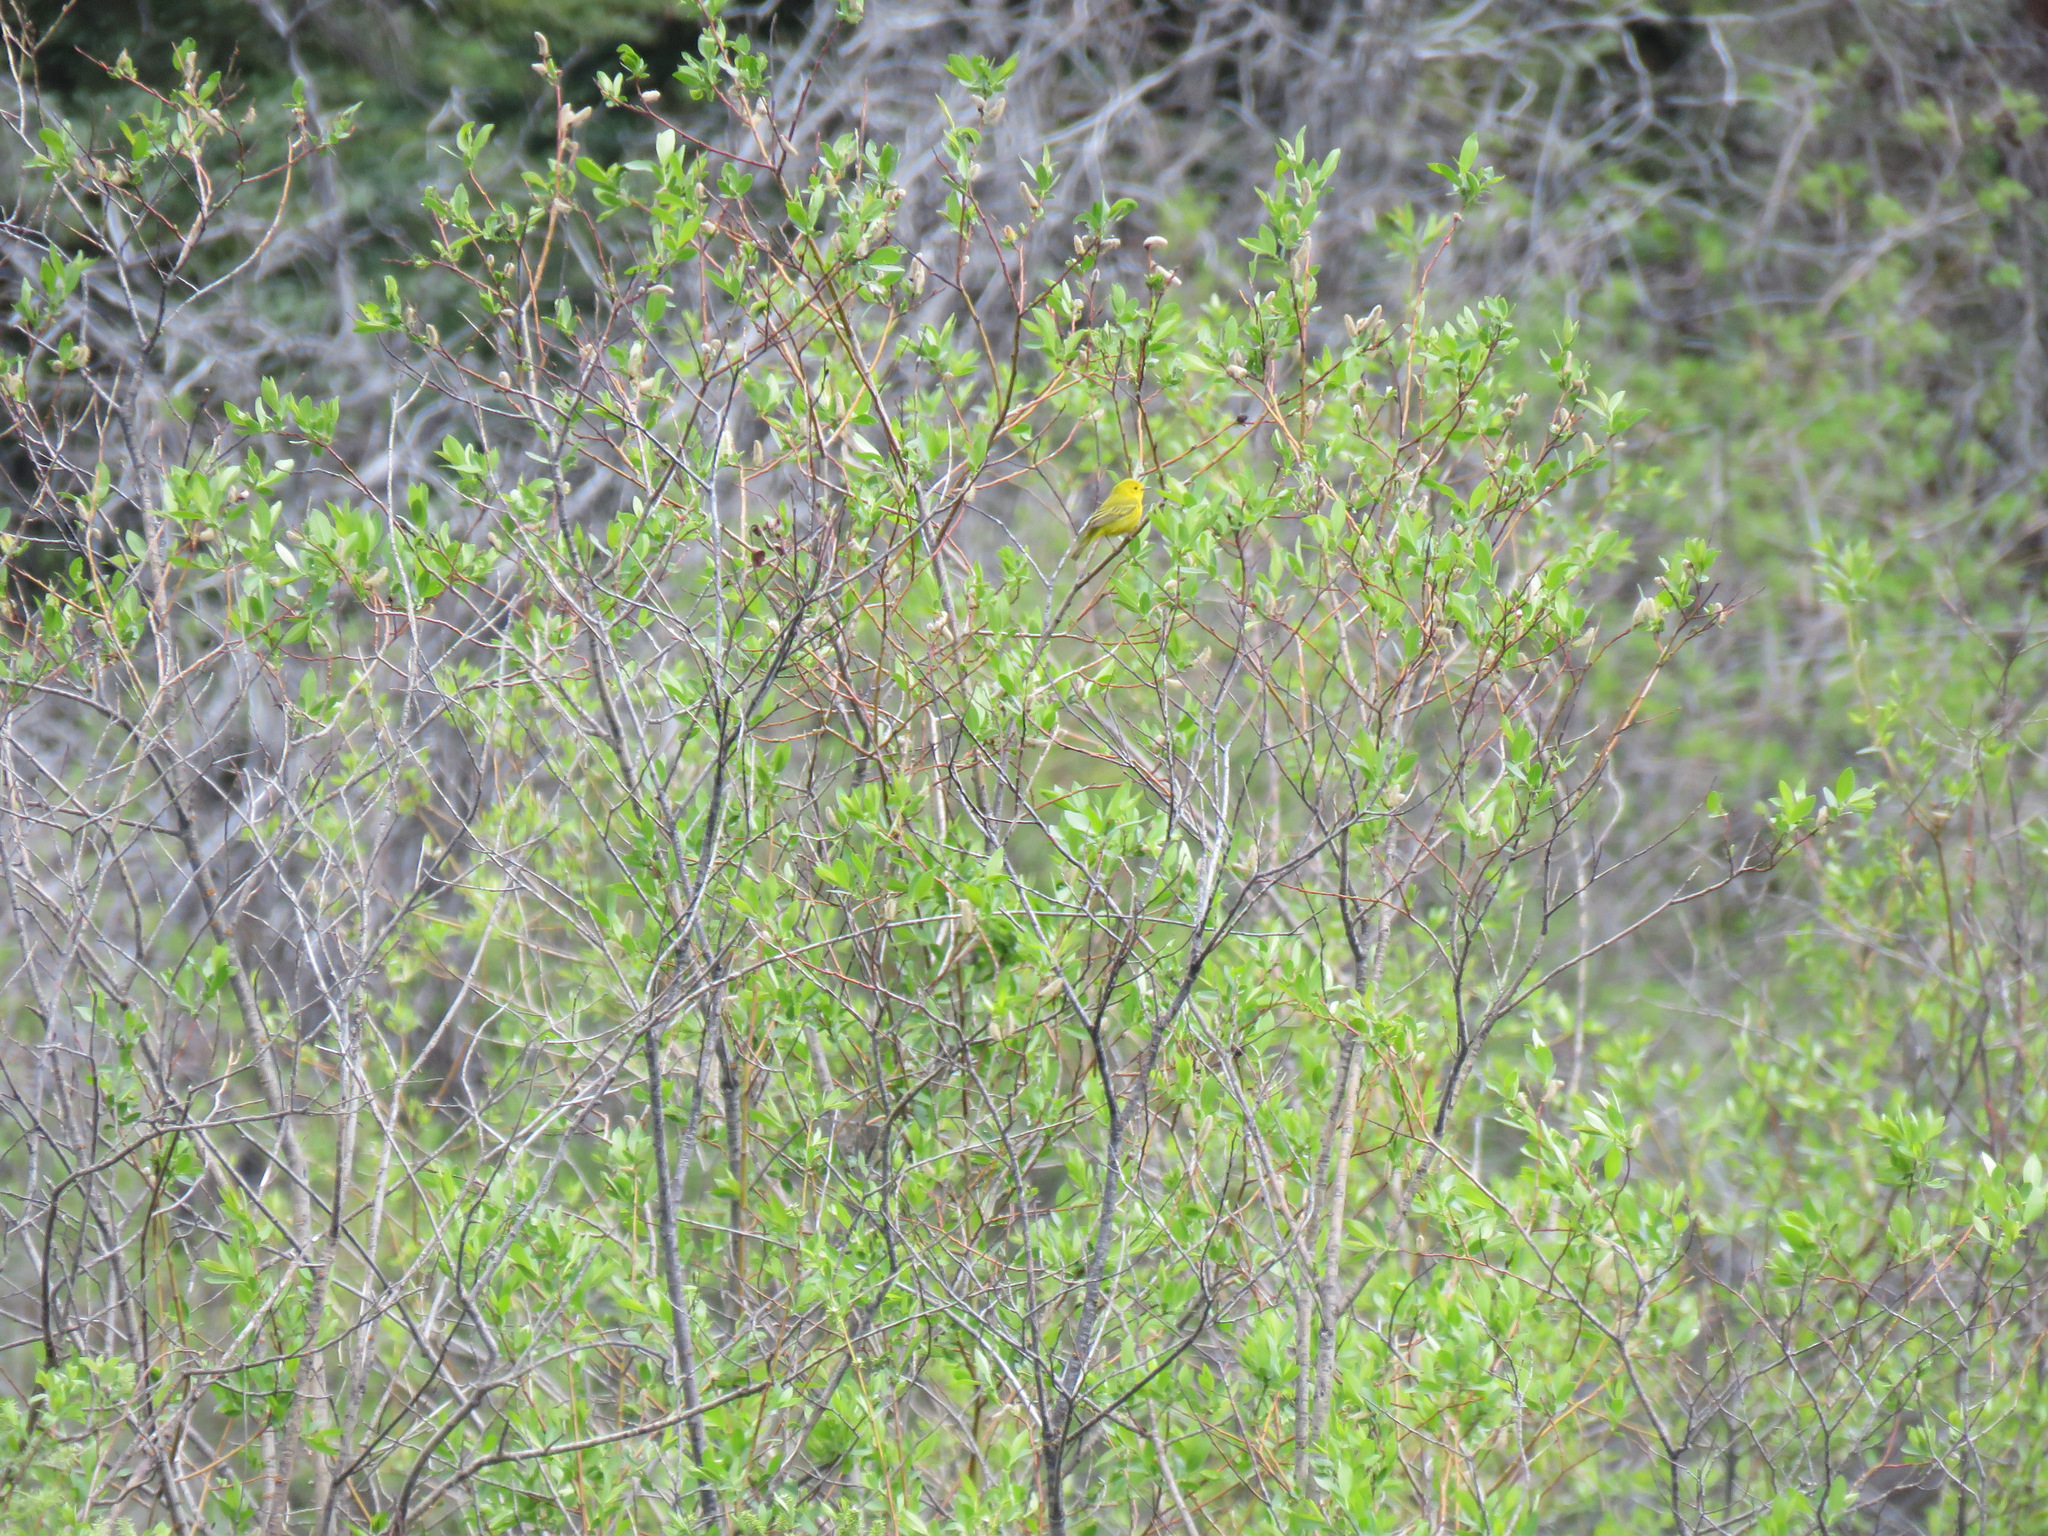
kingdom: Animalia
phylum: Chordata
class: Aves
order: Passeriformes
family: Parulidae
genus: Setophaga
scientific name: Setophaga petechia
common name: Yellow warbler
